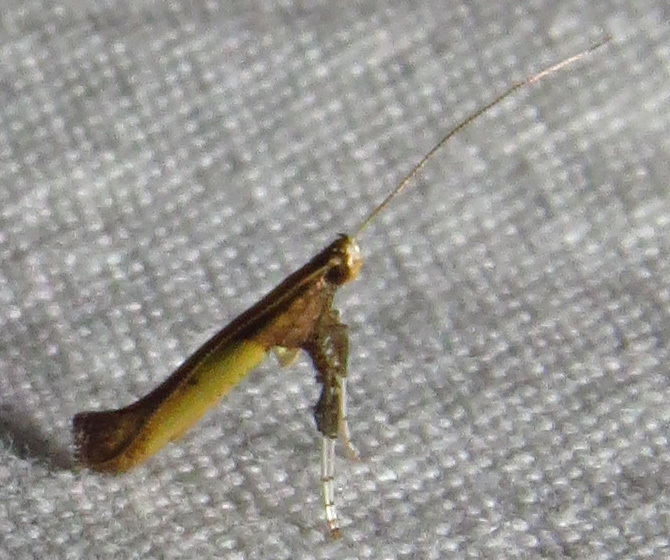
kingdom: Animalia
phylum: Arthropoda
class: Insecta
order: Lepidoptera
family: Gracillariidae
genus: Caloptilia
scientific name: Caloptilia azaleella
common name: Azalea leafminer
